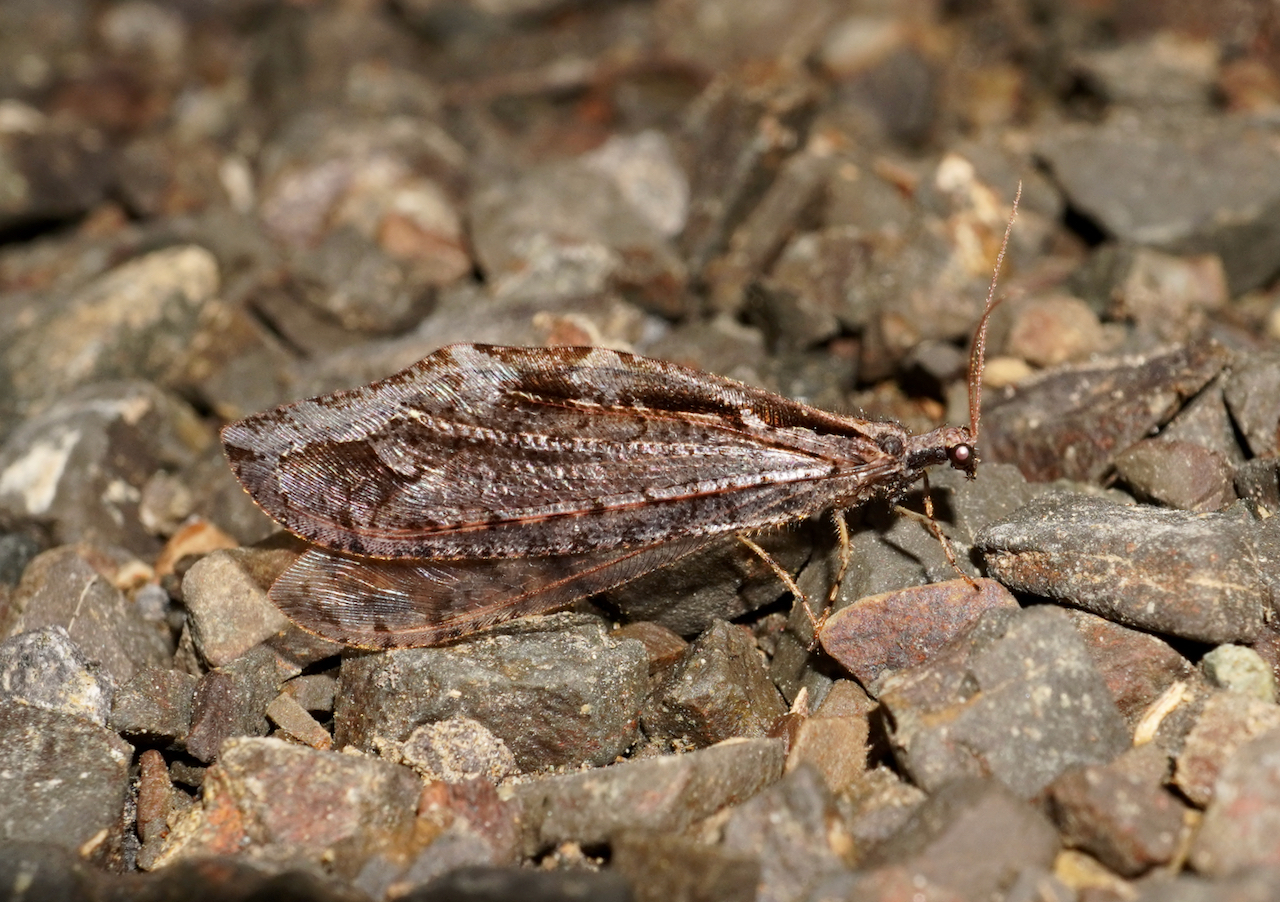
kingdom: Animalia
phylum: Arthropoda
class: Insecta
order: Neuroptera
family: Osmylidae
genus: Kempynus
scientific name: Kempynus incisus
